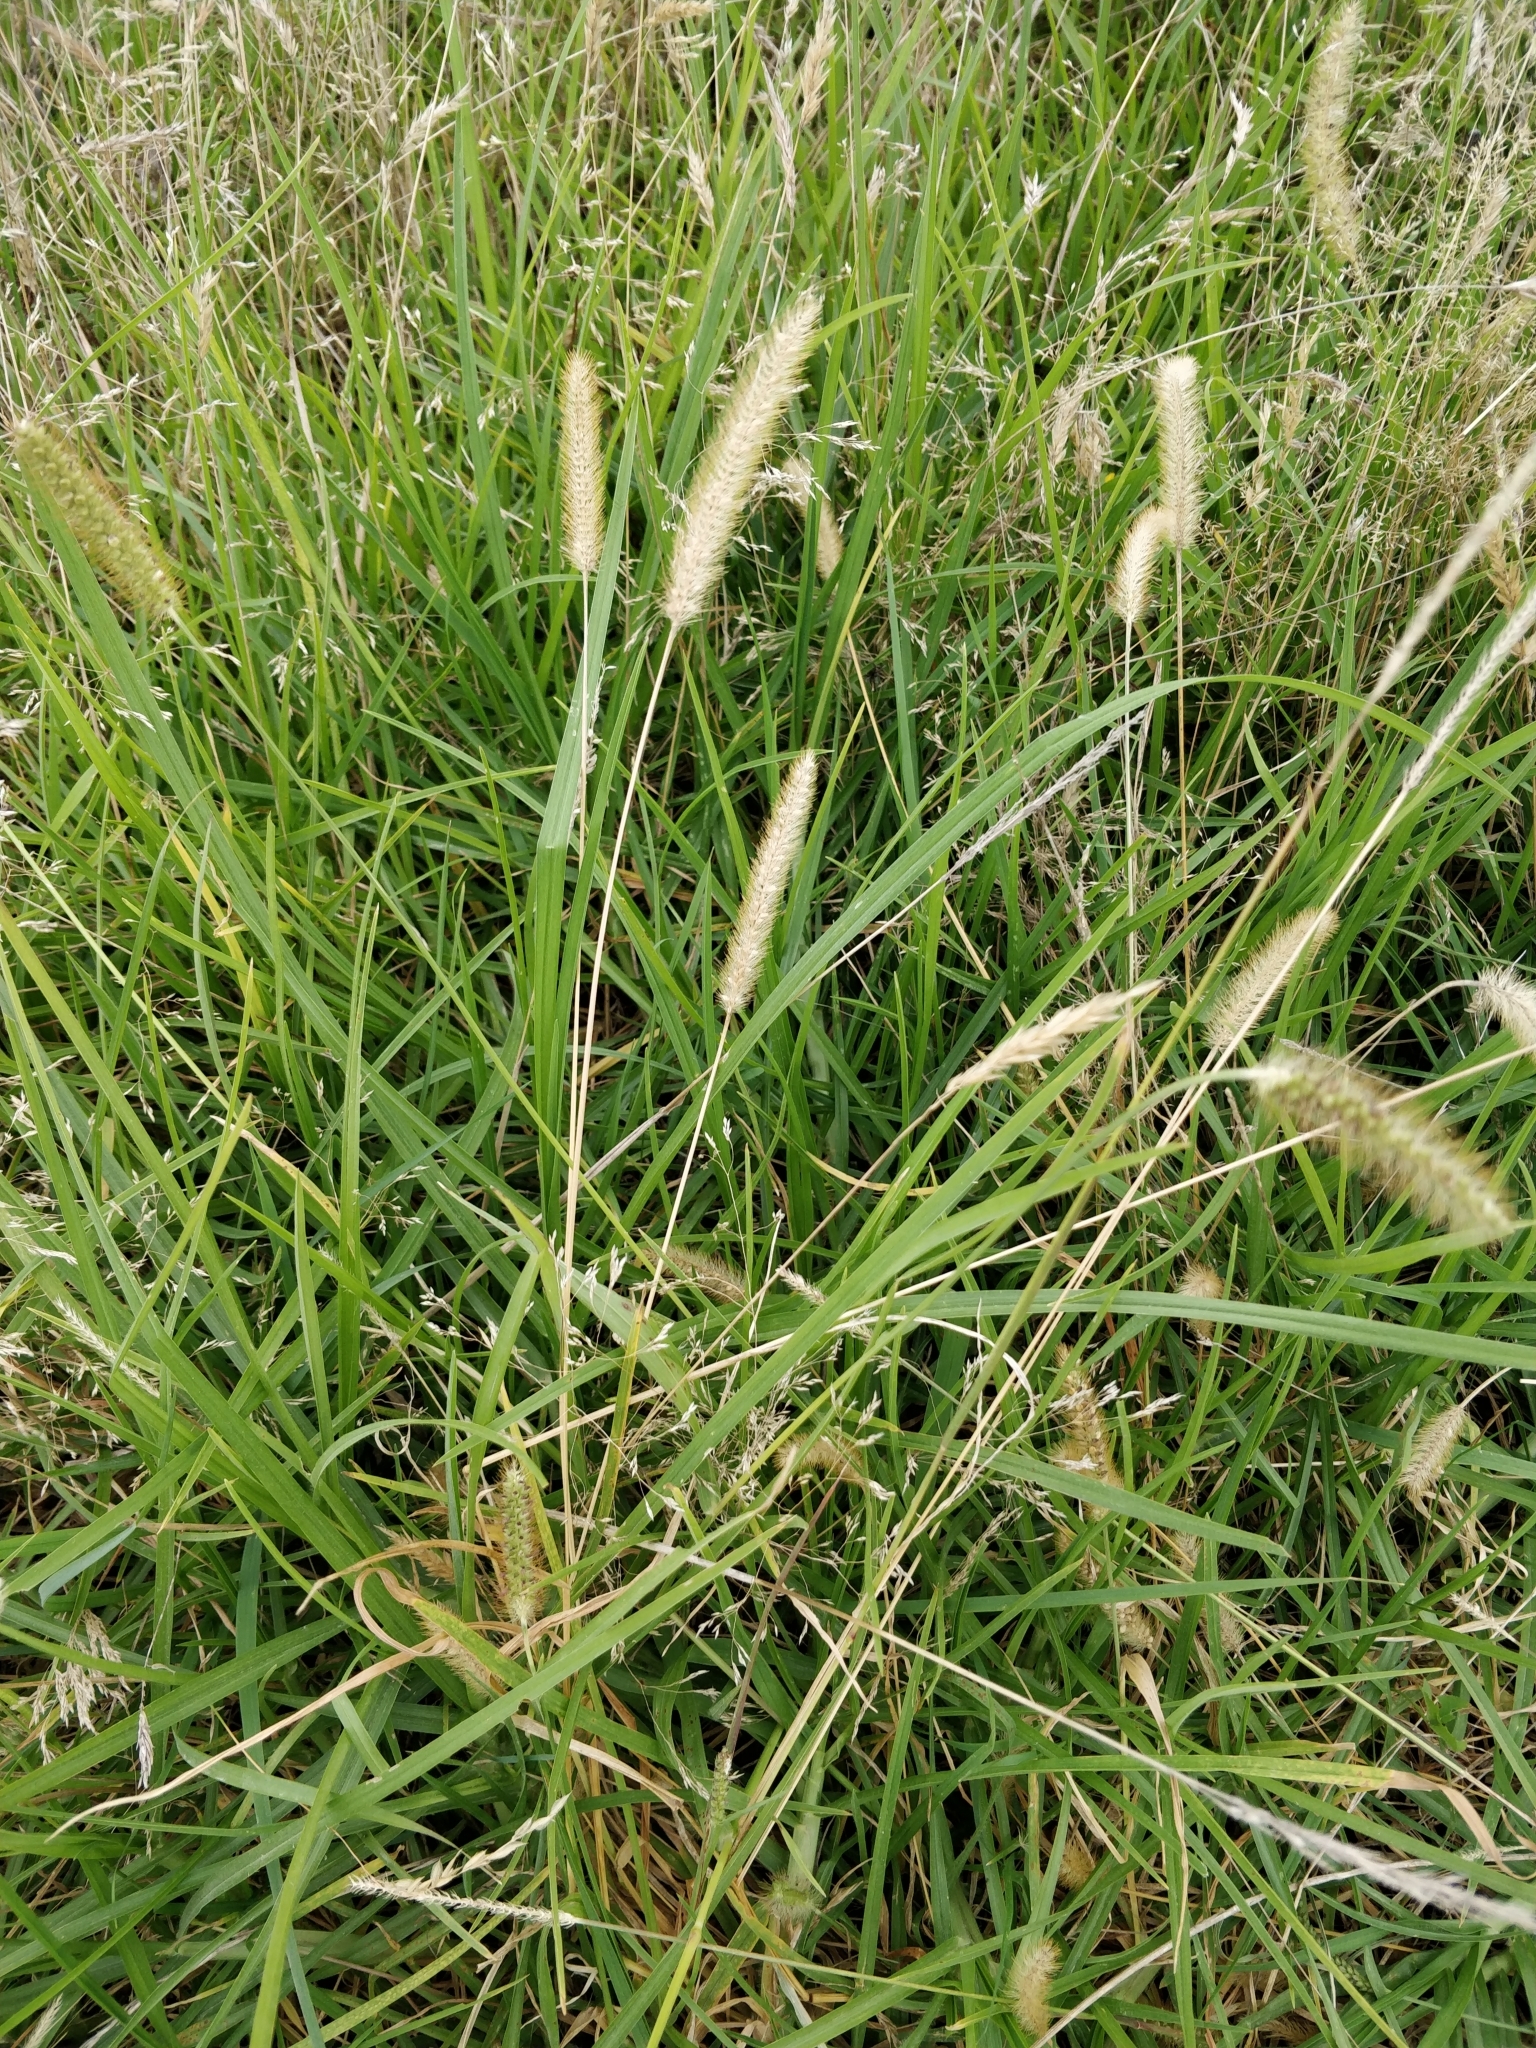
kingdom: Plantae
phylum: Tracheophyta
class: Liliopsida
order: Poales
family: Poaceae
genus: Setaria
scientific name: Setaria pumila
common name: Yellow bristle-grass
